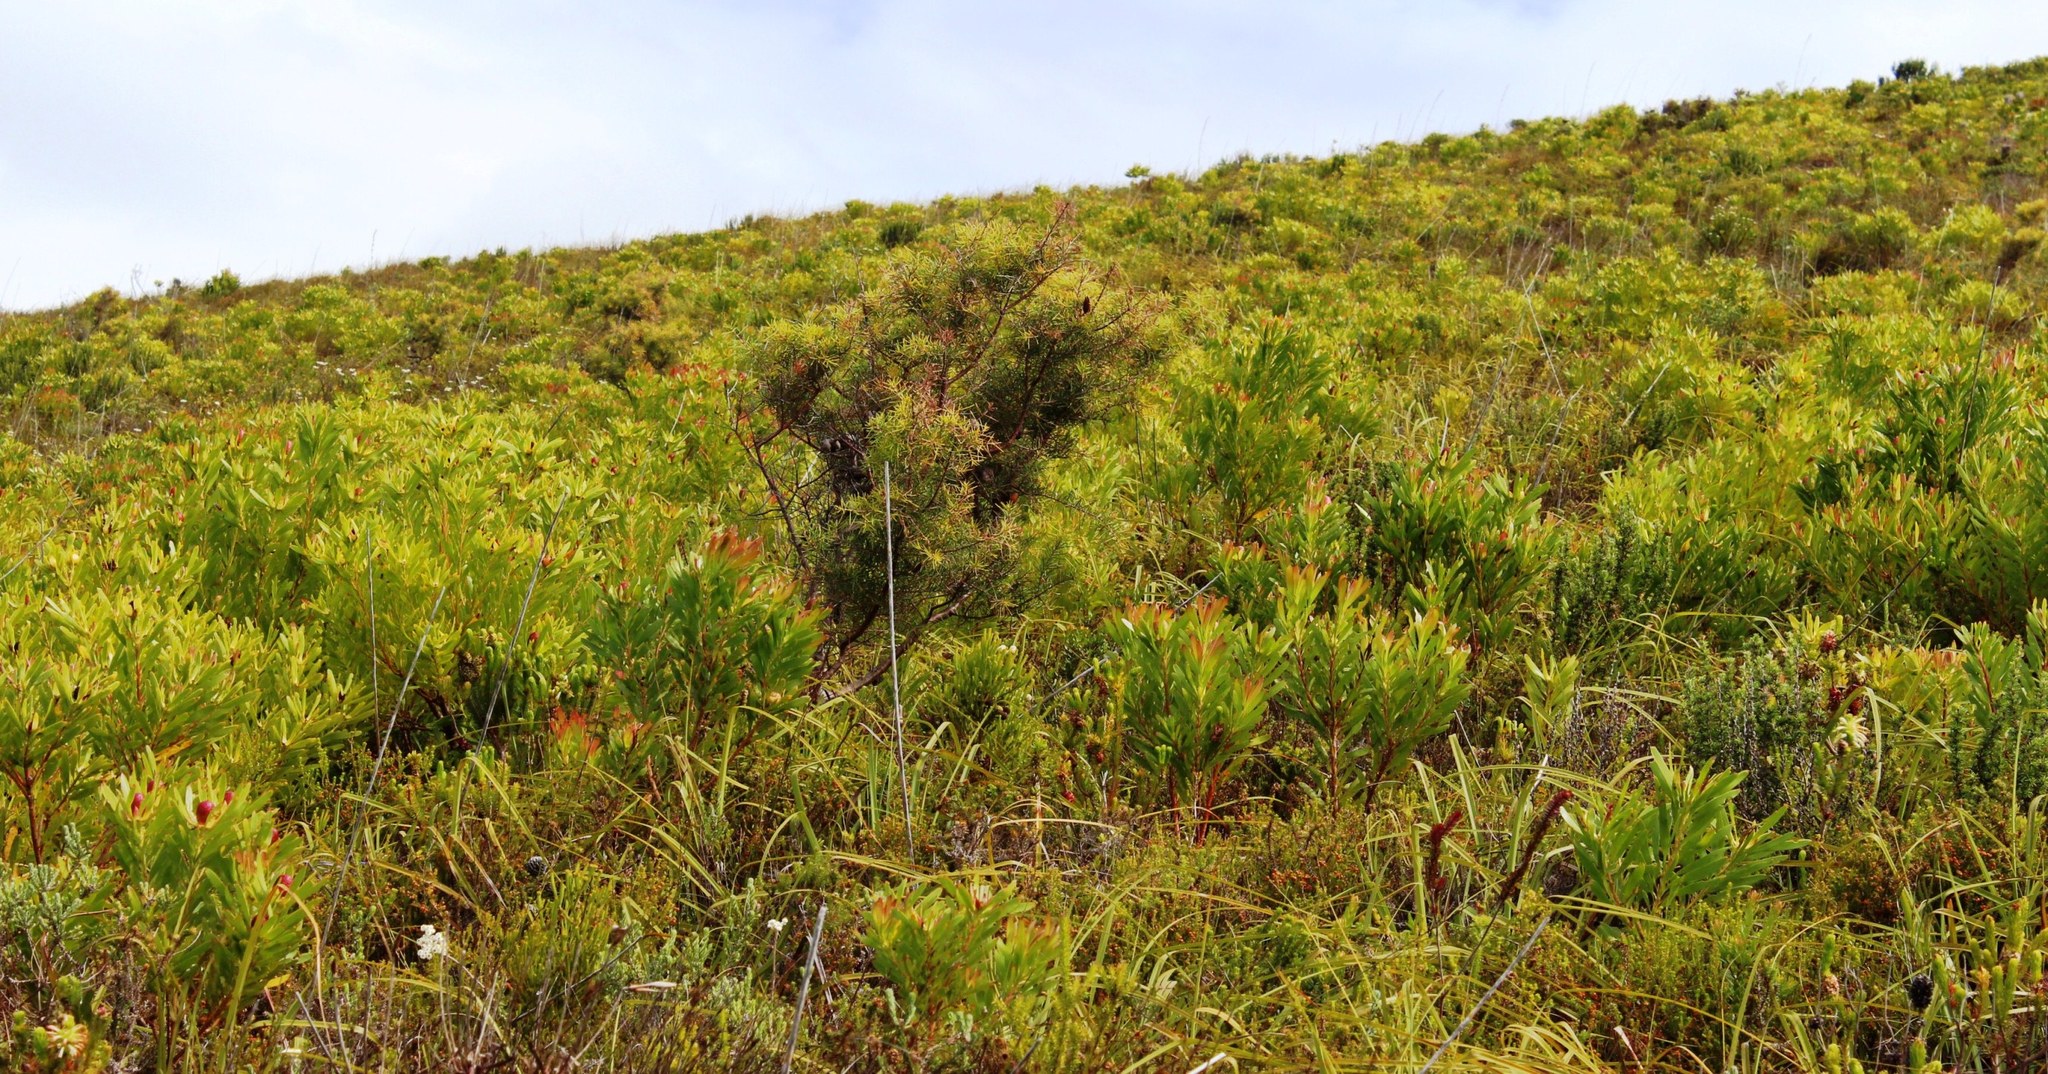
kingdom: Plantae
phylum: Tracheophyta
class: Magnoliopsida
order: Proteales
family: Proteaceae
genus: Hakea
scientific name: Hakea sericea
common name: Needle bush
